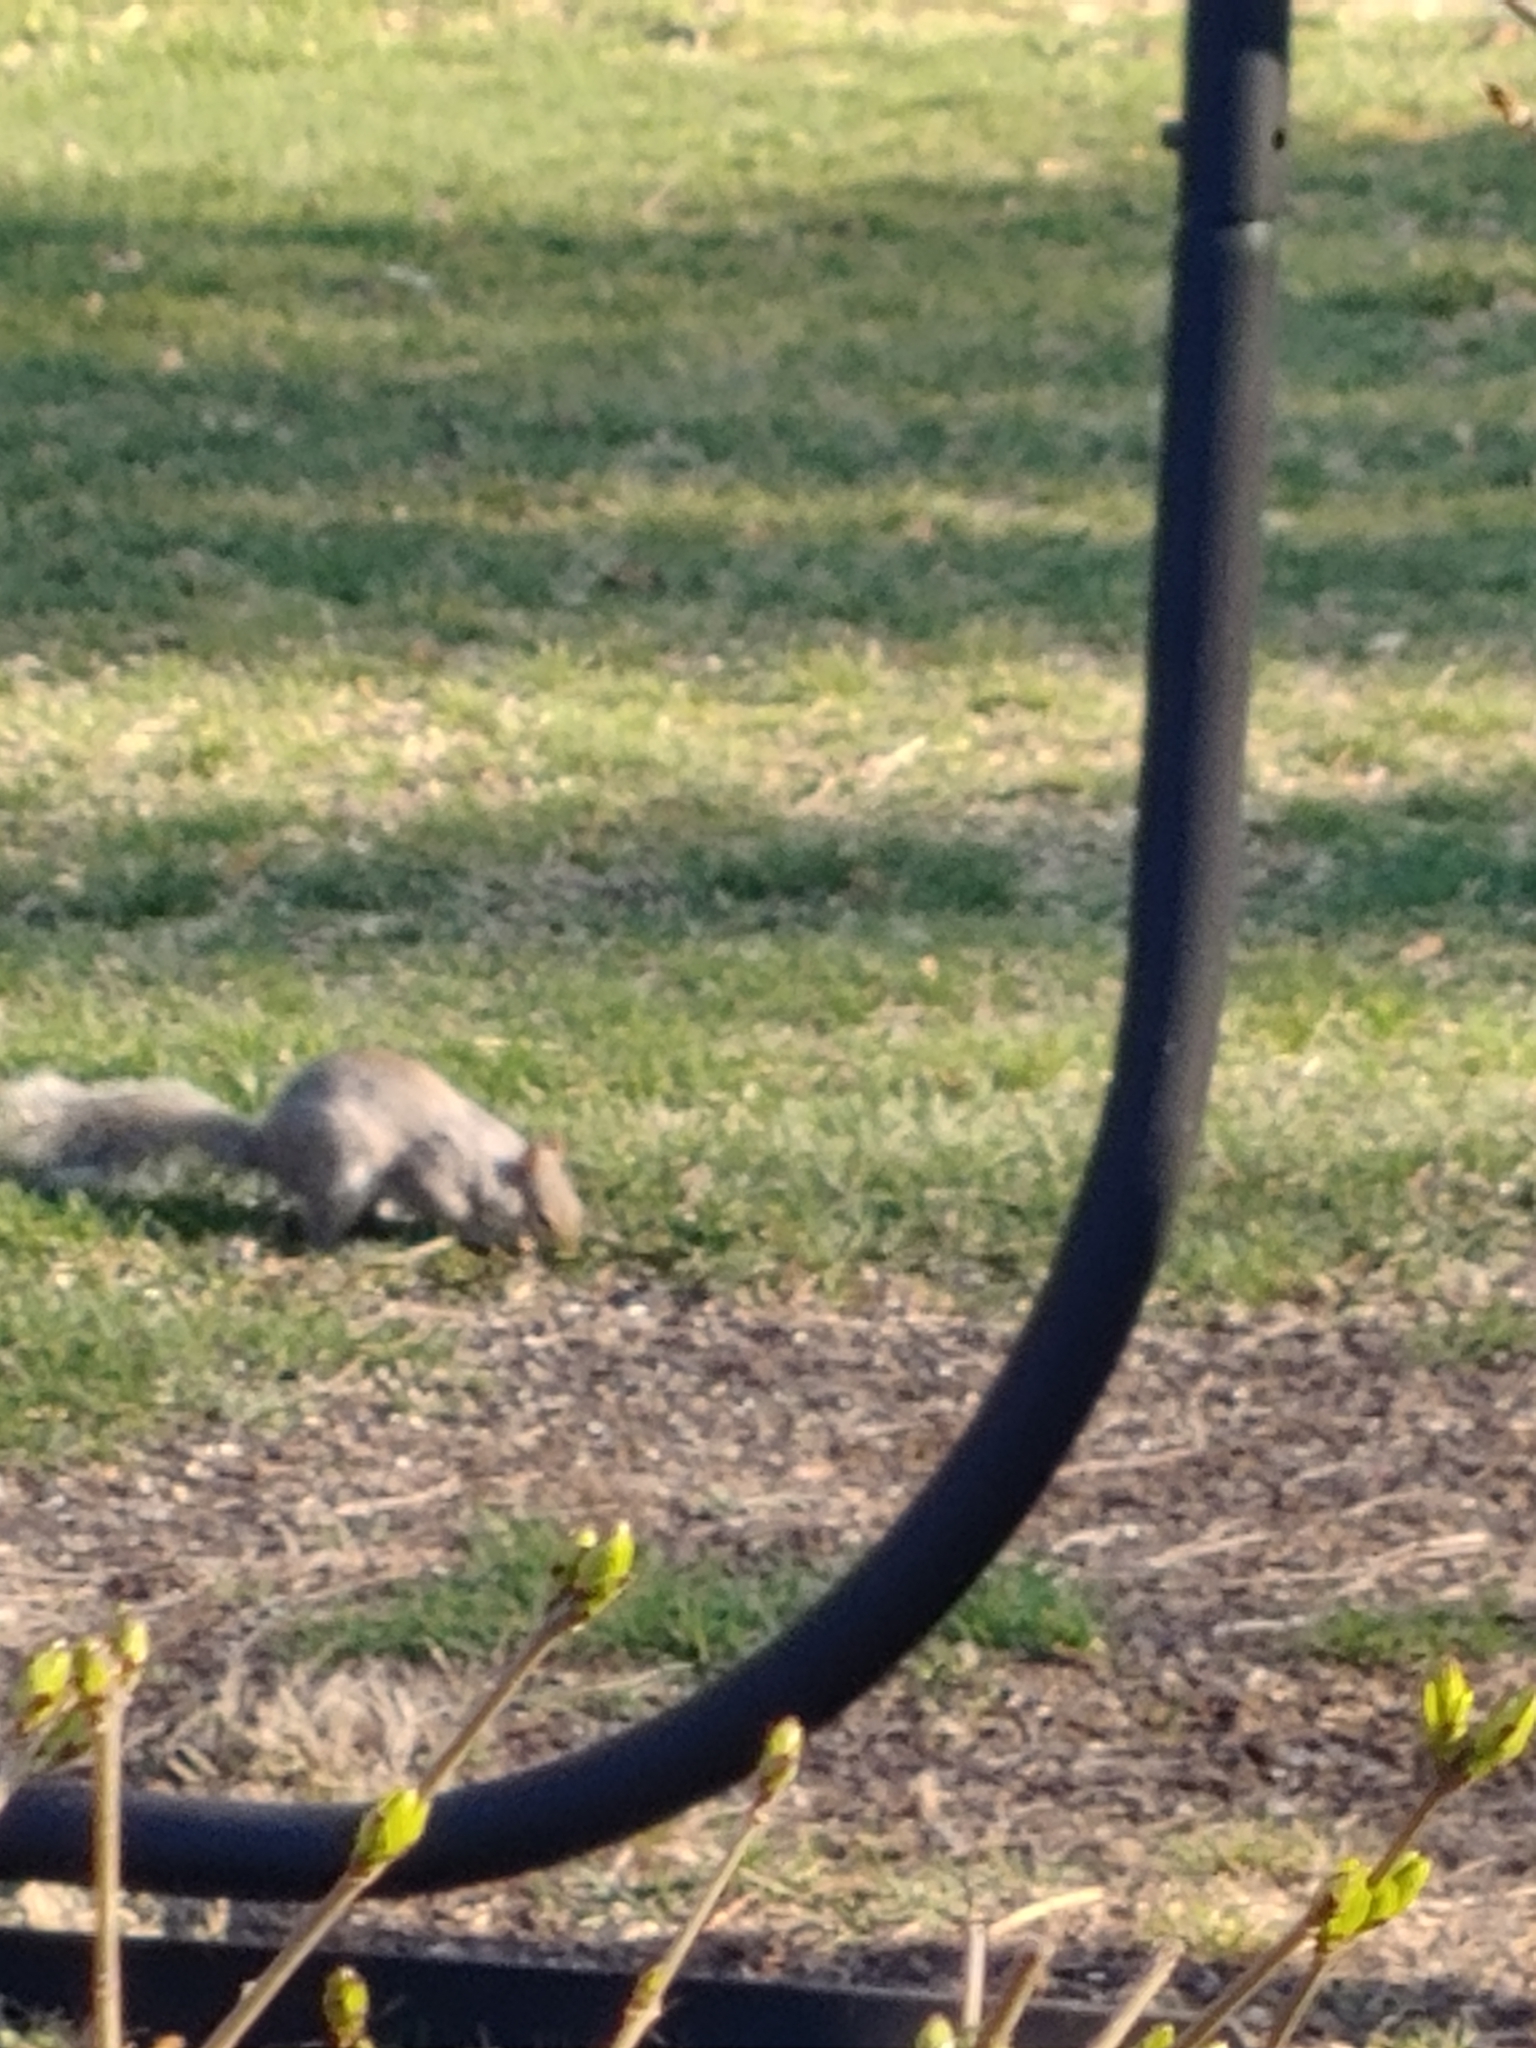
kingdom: Animalia
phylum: Chordata
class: Mammalia
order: Rodentia
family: Sciuridae
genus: Sciurus
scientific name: Sciurus carolinensis
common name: Eastern gray squirrel
